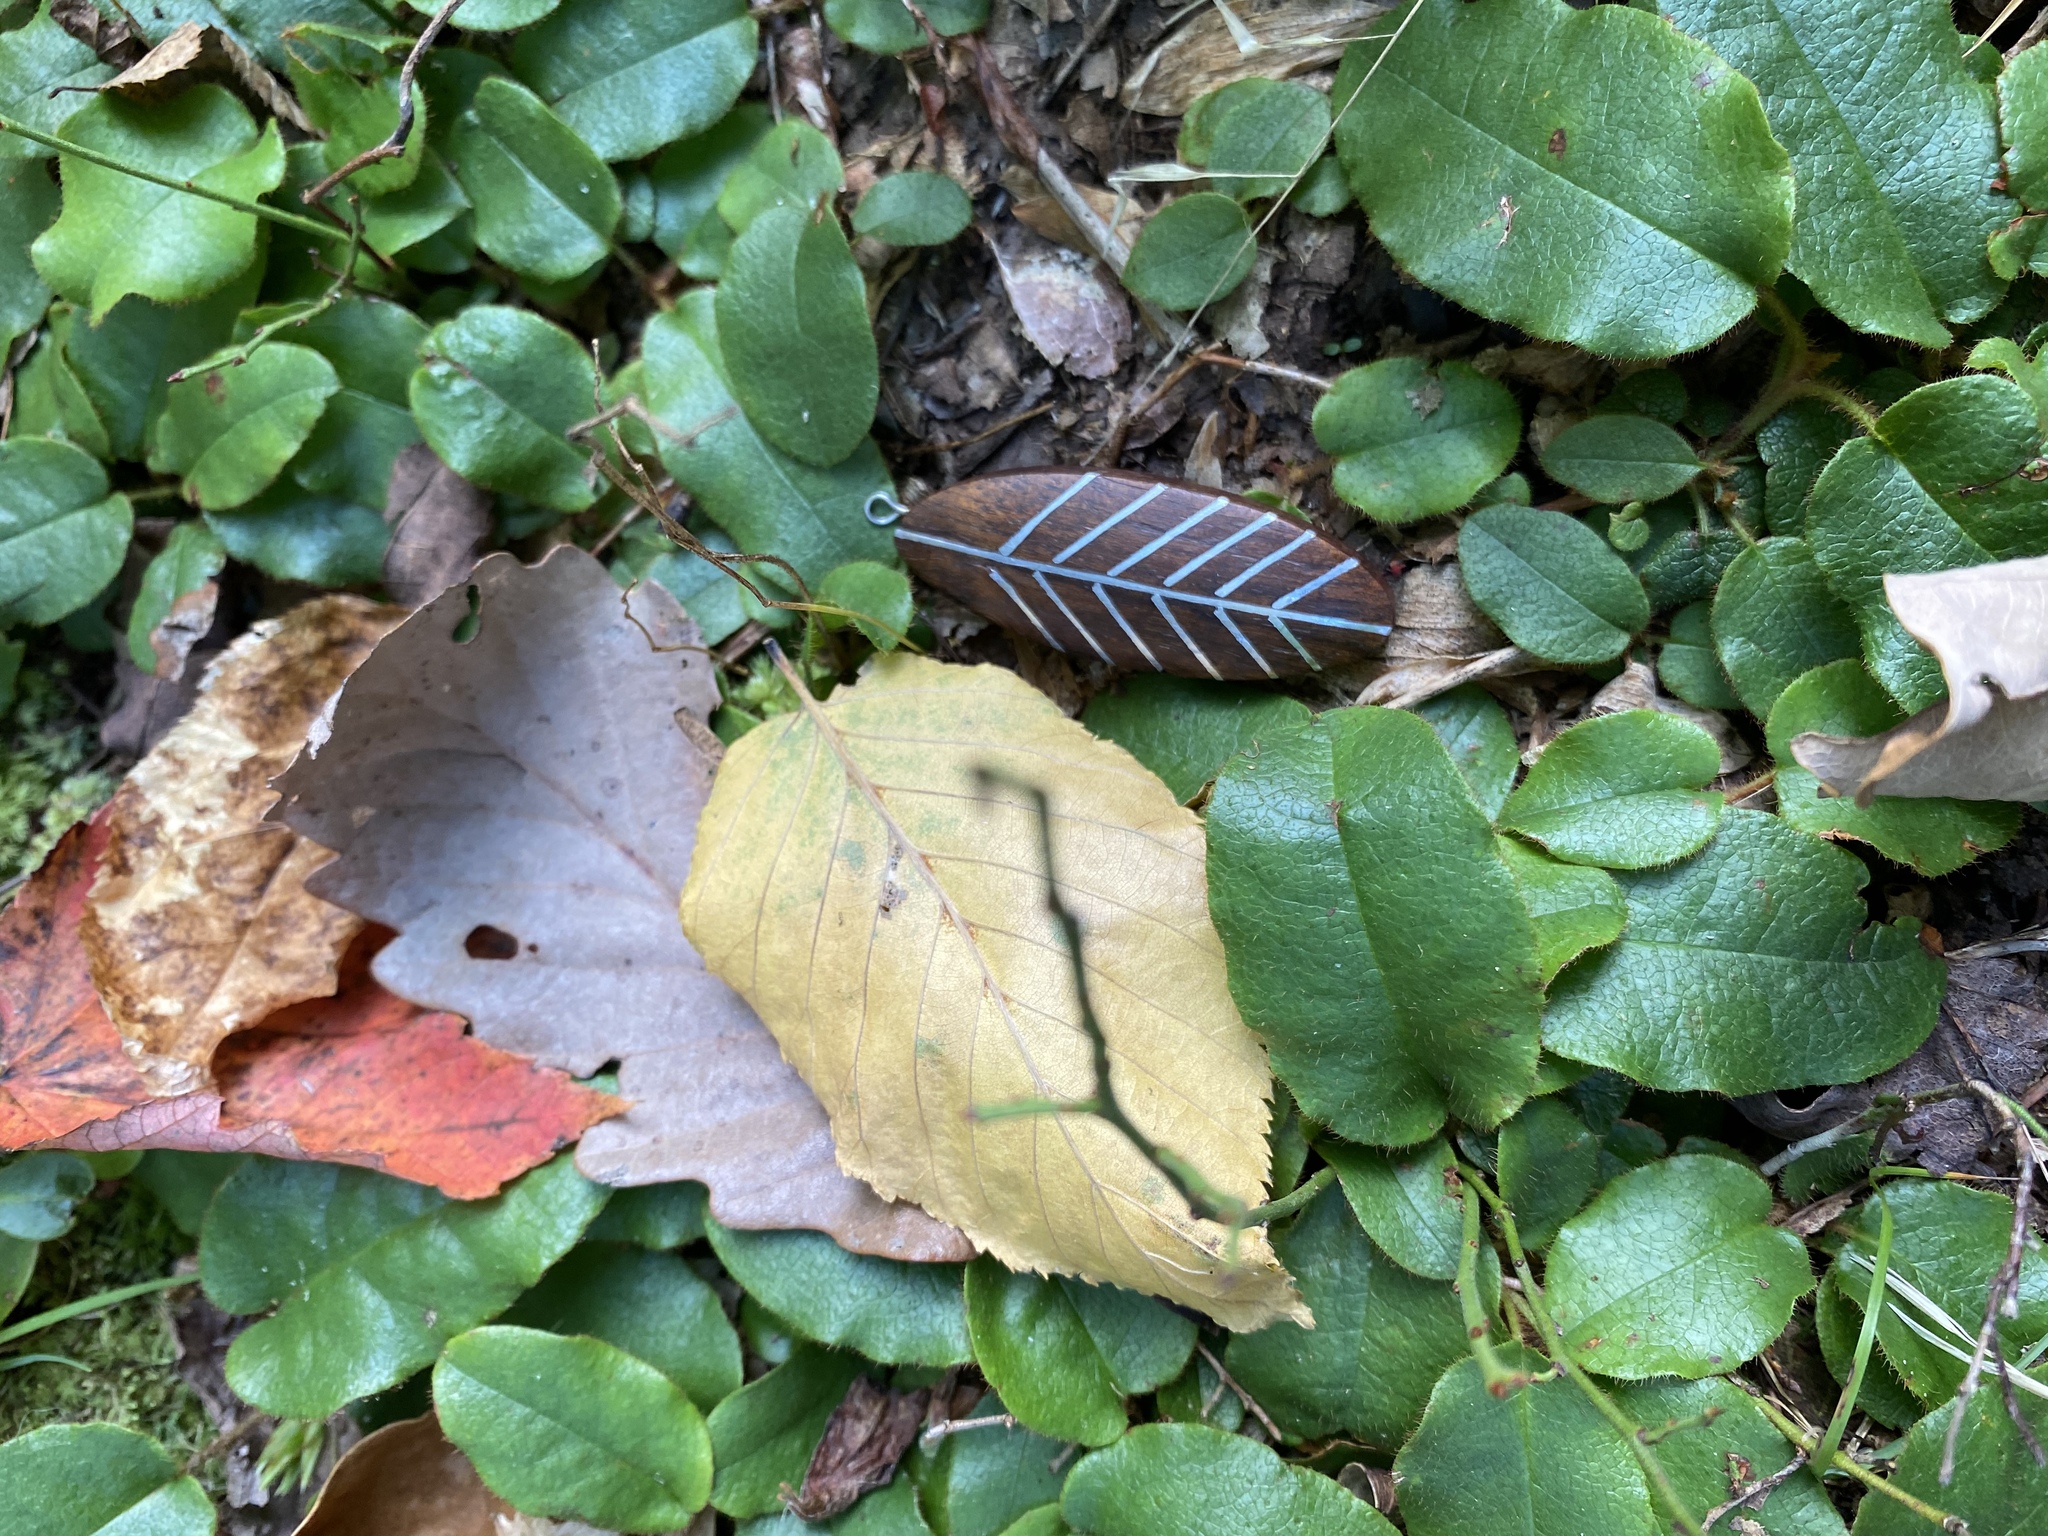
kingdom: Plantae
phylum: Tracheophyta
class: Magnoliopsida
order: Ericales
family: Ericaceae
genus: Epigaea
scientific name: Epigaea repens
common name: Gravelroot
